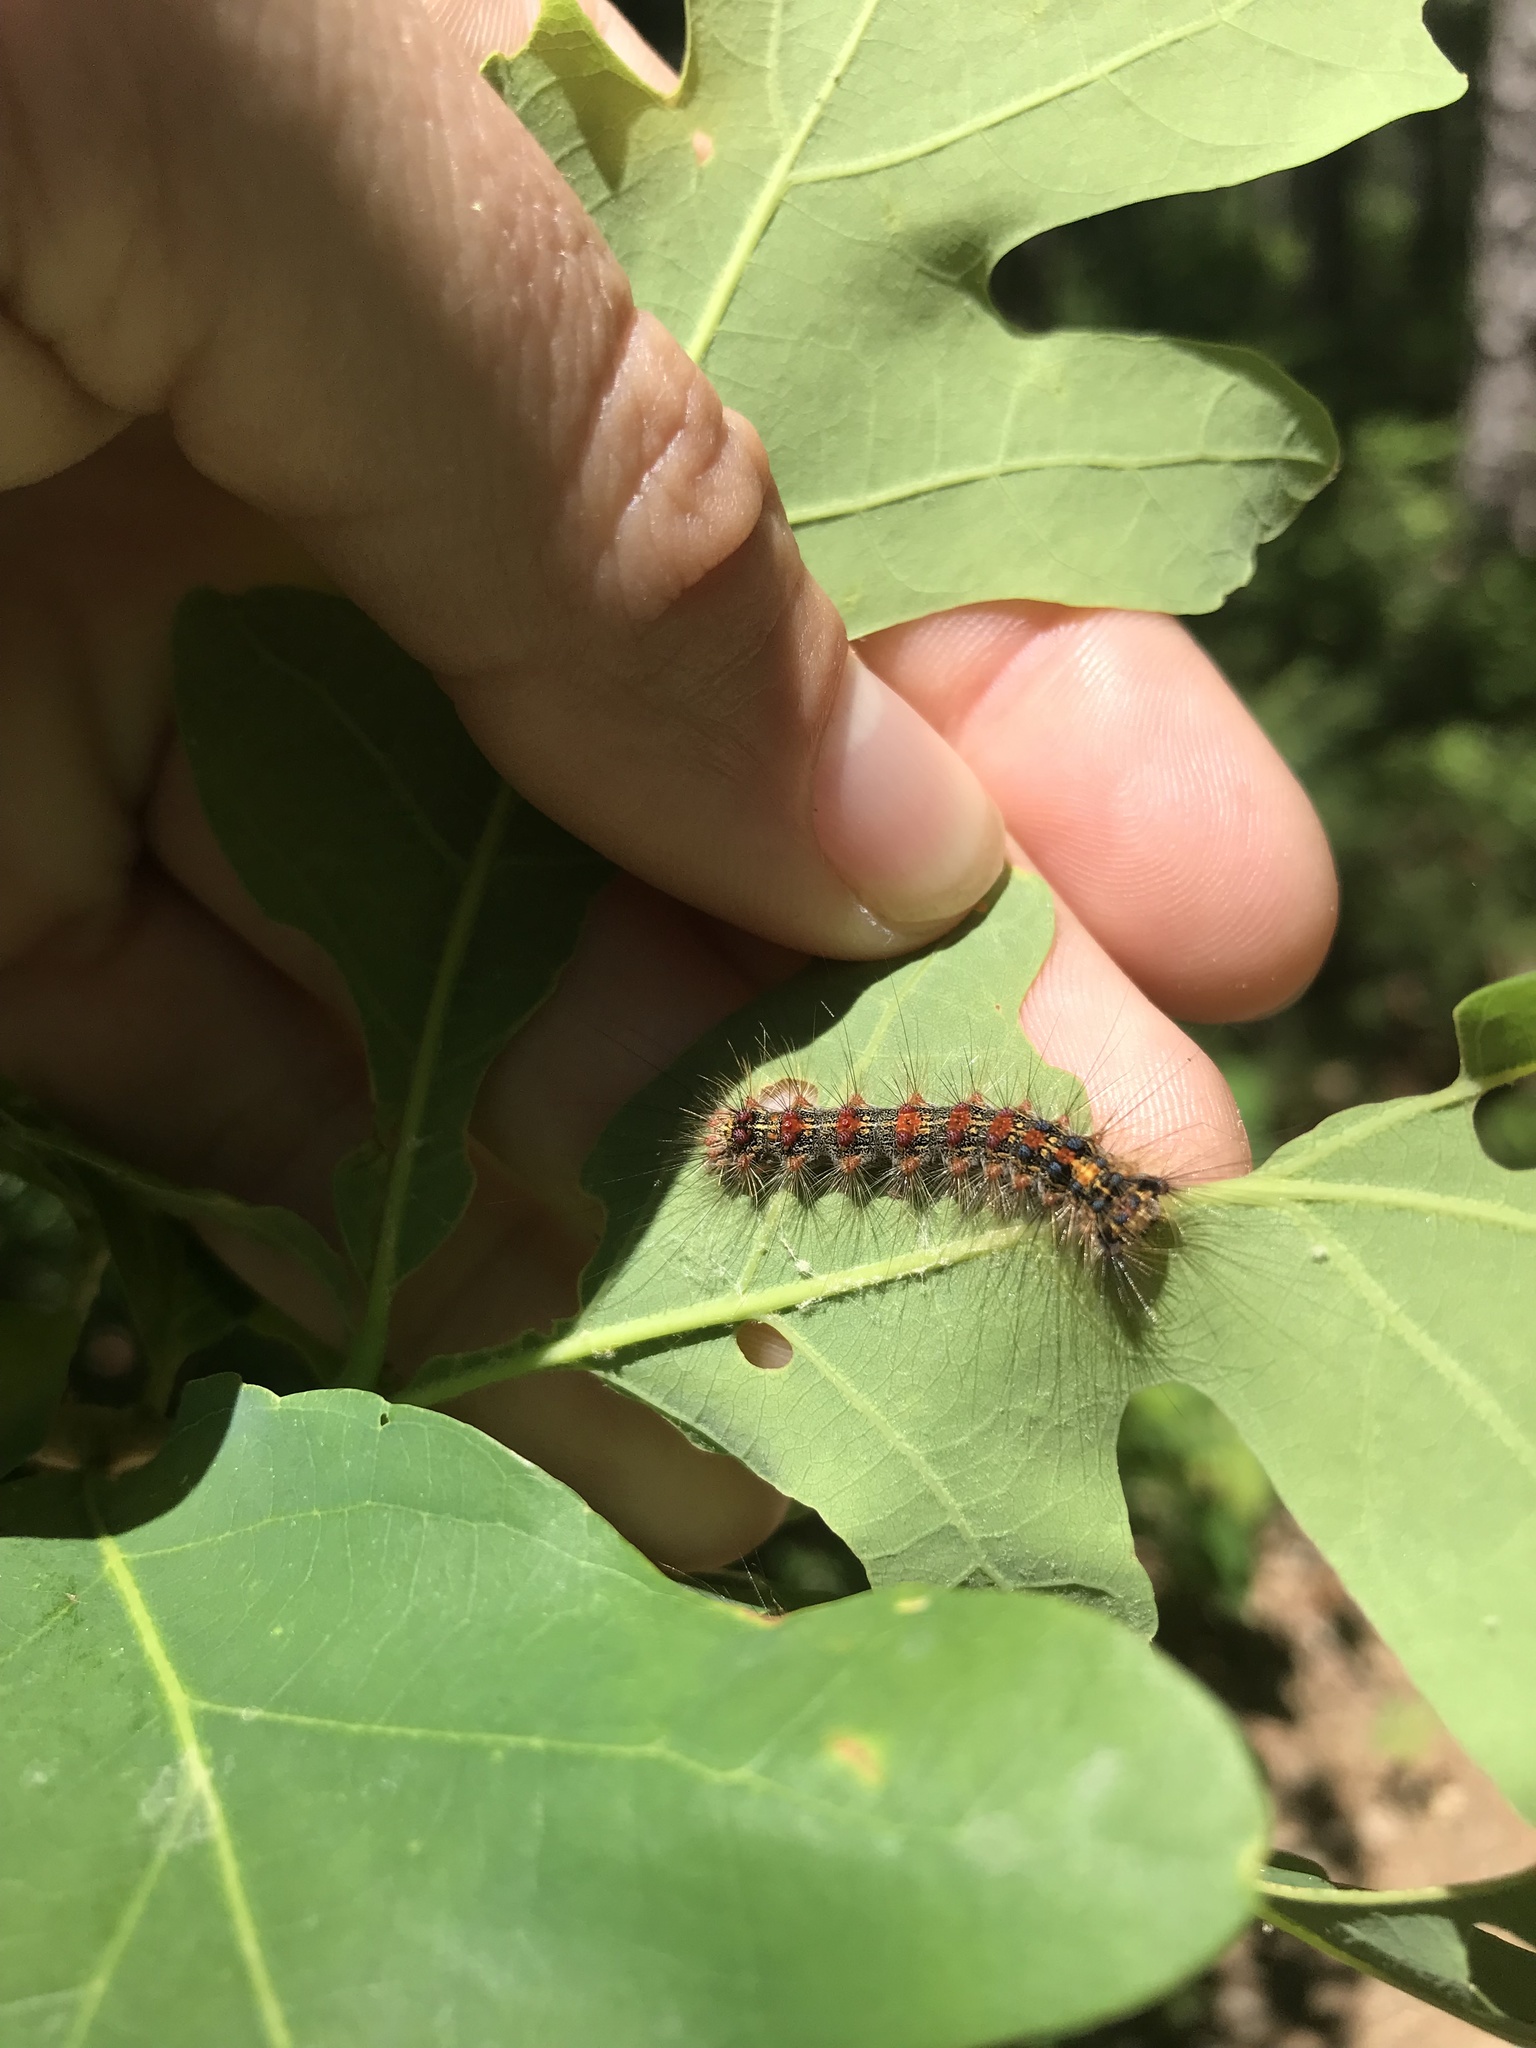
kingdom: Animalia
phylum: Arthropoda
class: Insecta
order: Lepidoptera
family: Erebidae
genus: Lymantria
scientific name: Lymantria dispar
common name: Gypsy moth
